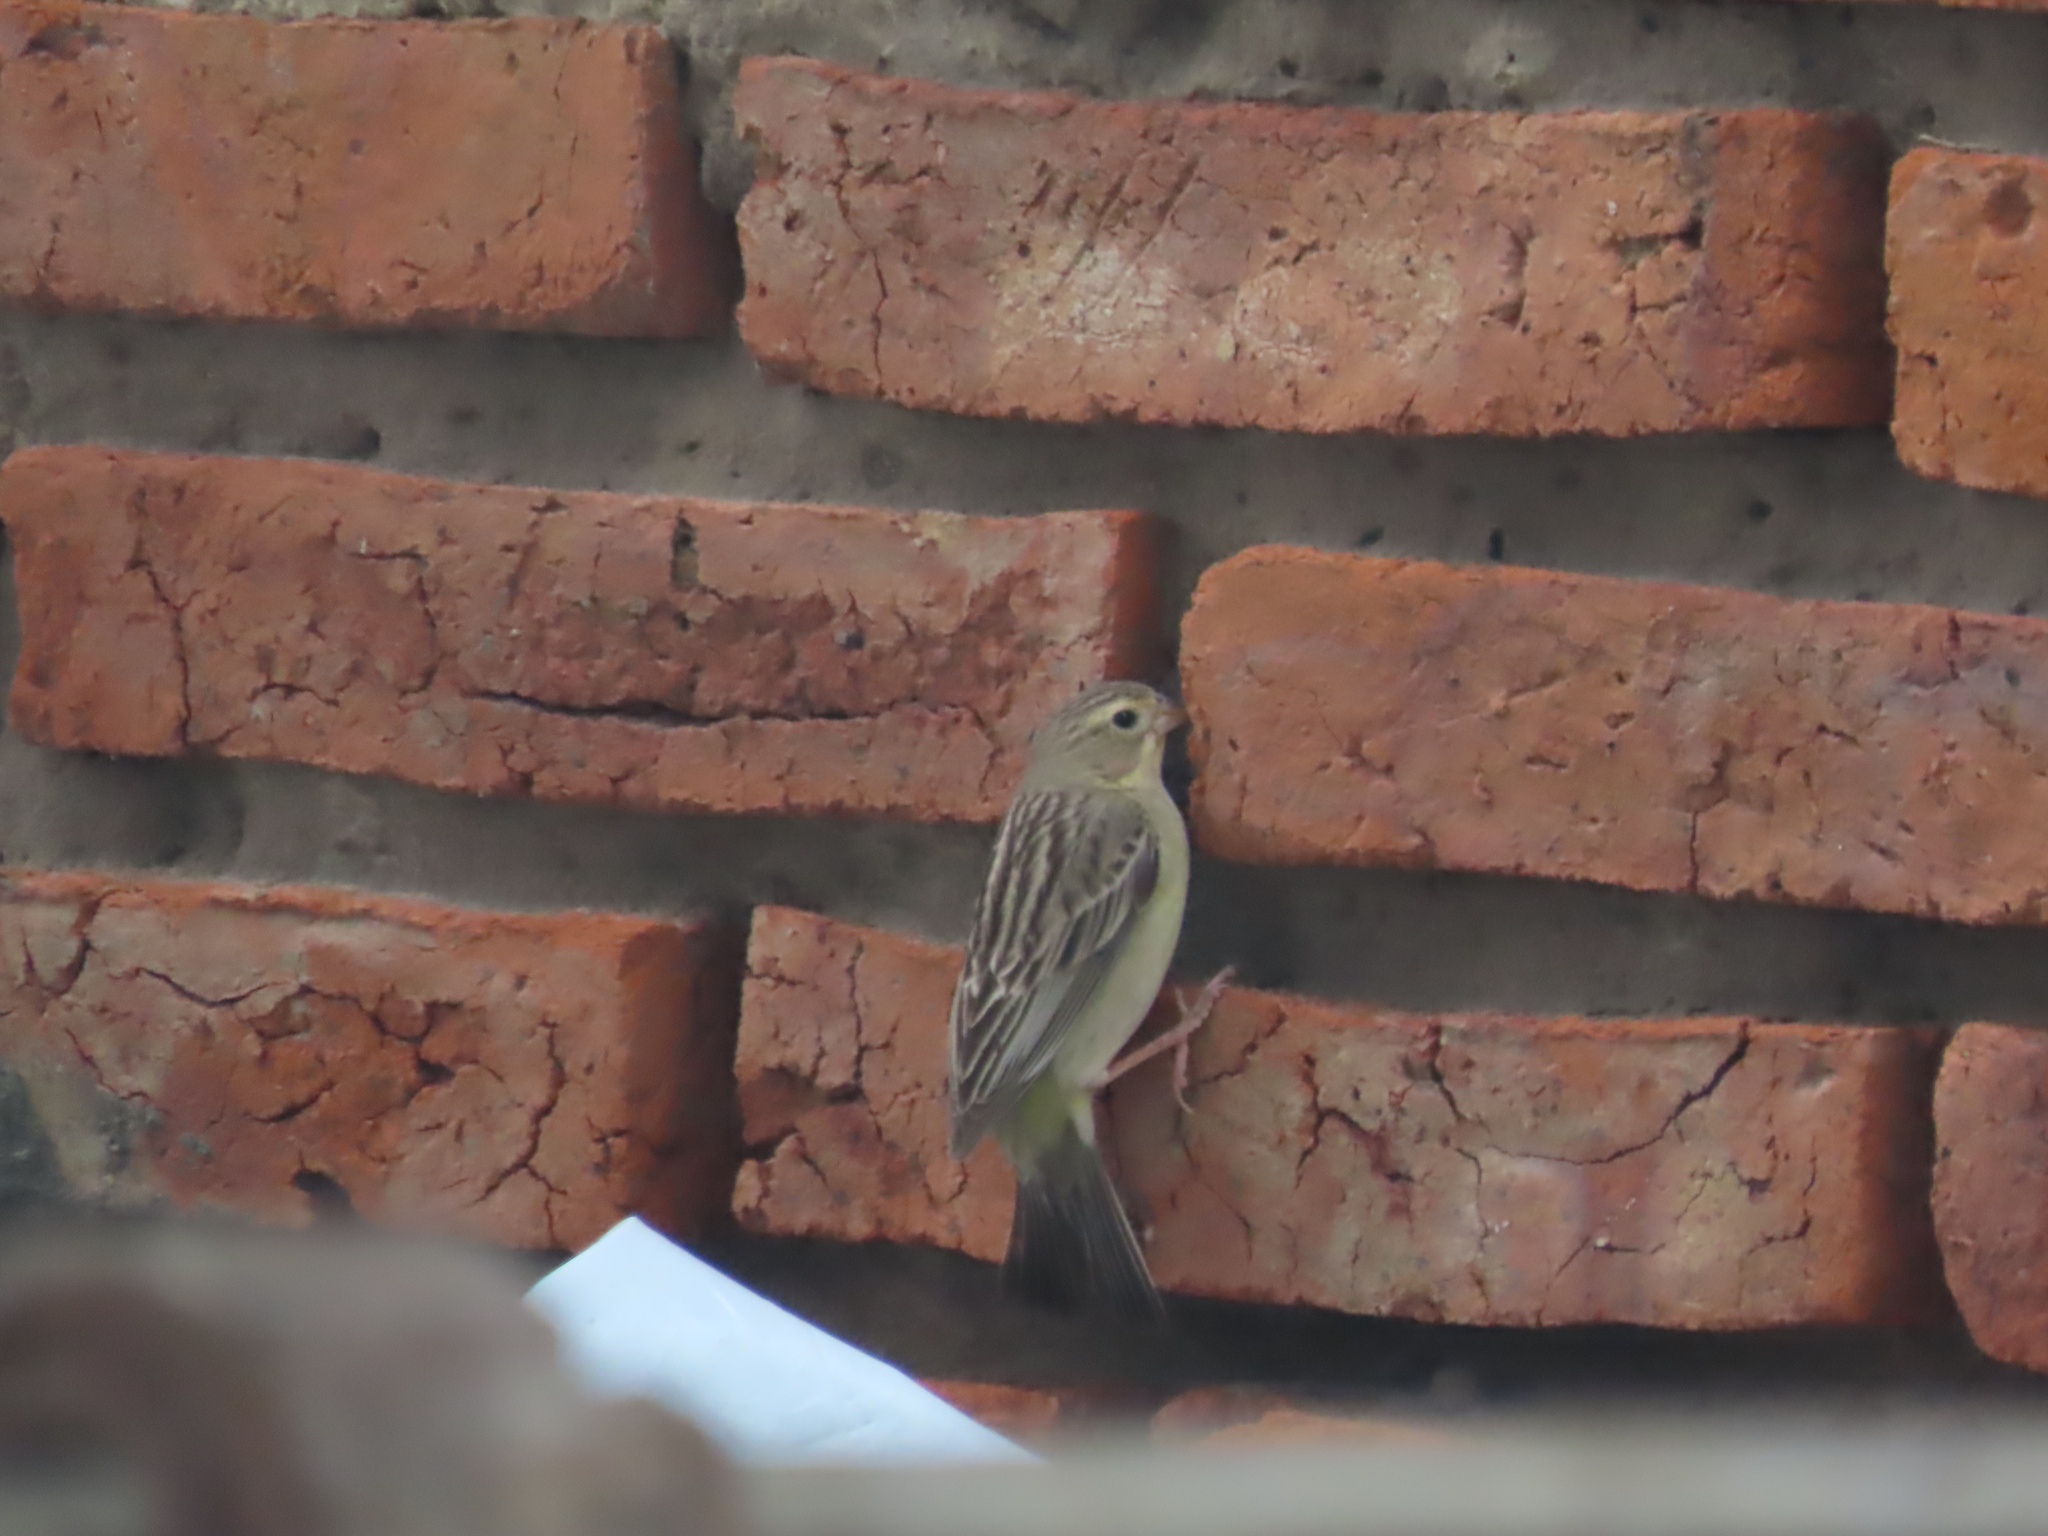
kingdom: Animalia
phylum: Chordata
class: Aves
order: Passeriformes
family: Thraupidae
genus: Sicalis
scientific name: Sicalis luteola
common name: Grassland yellow-finch
